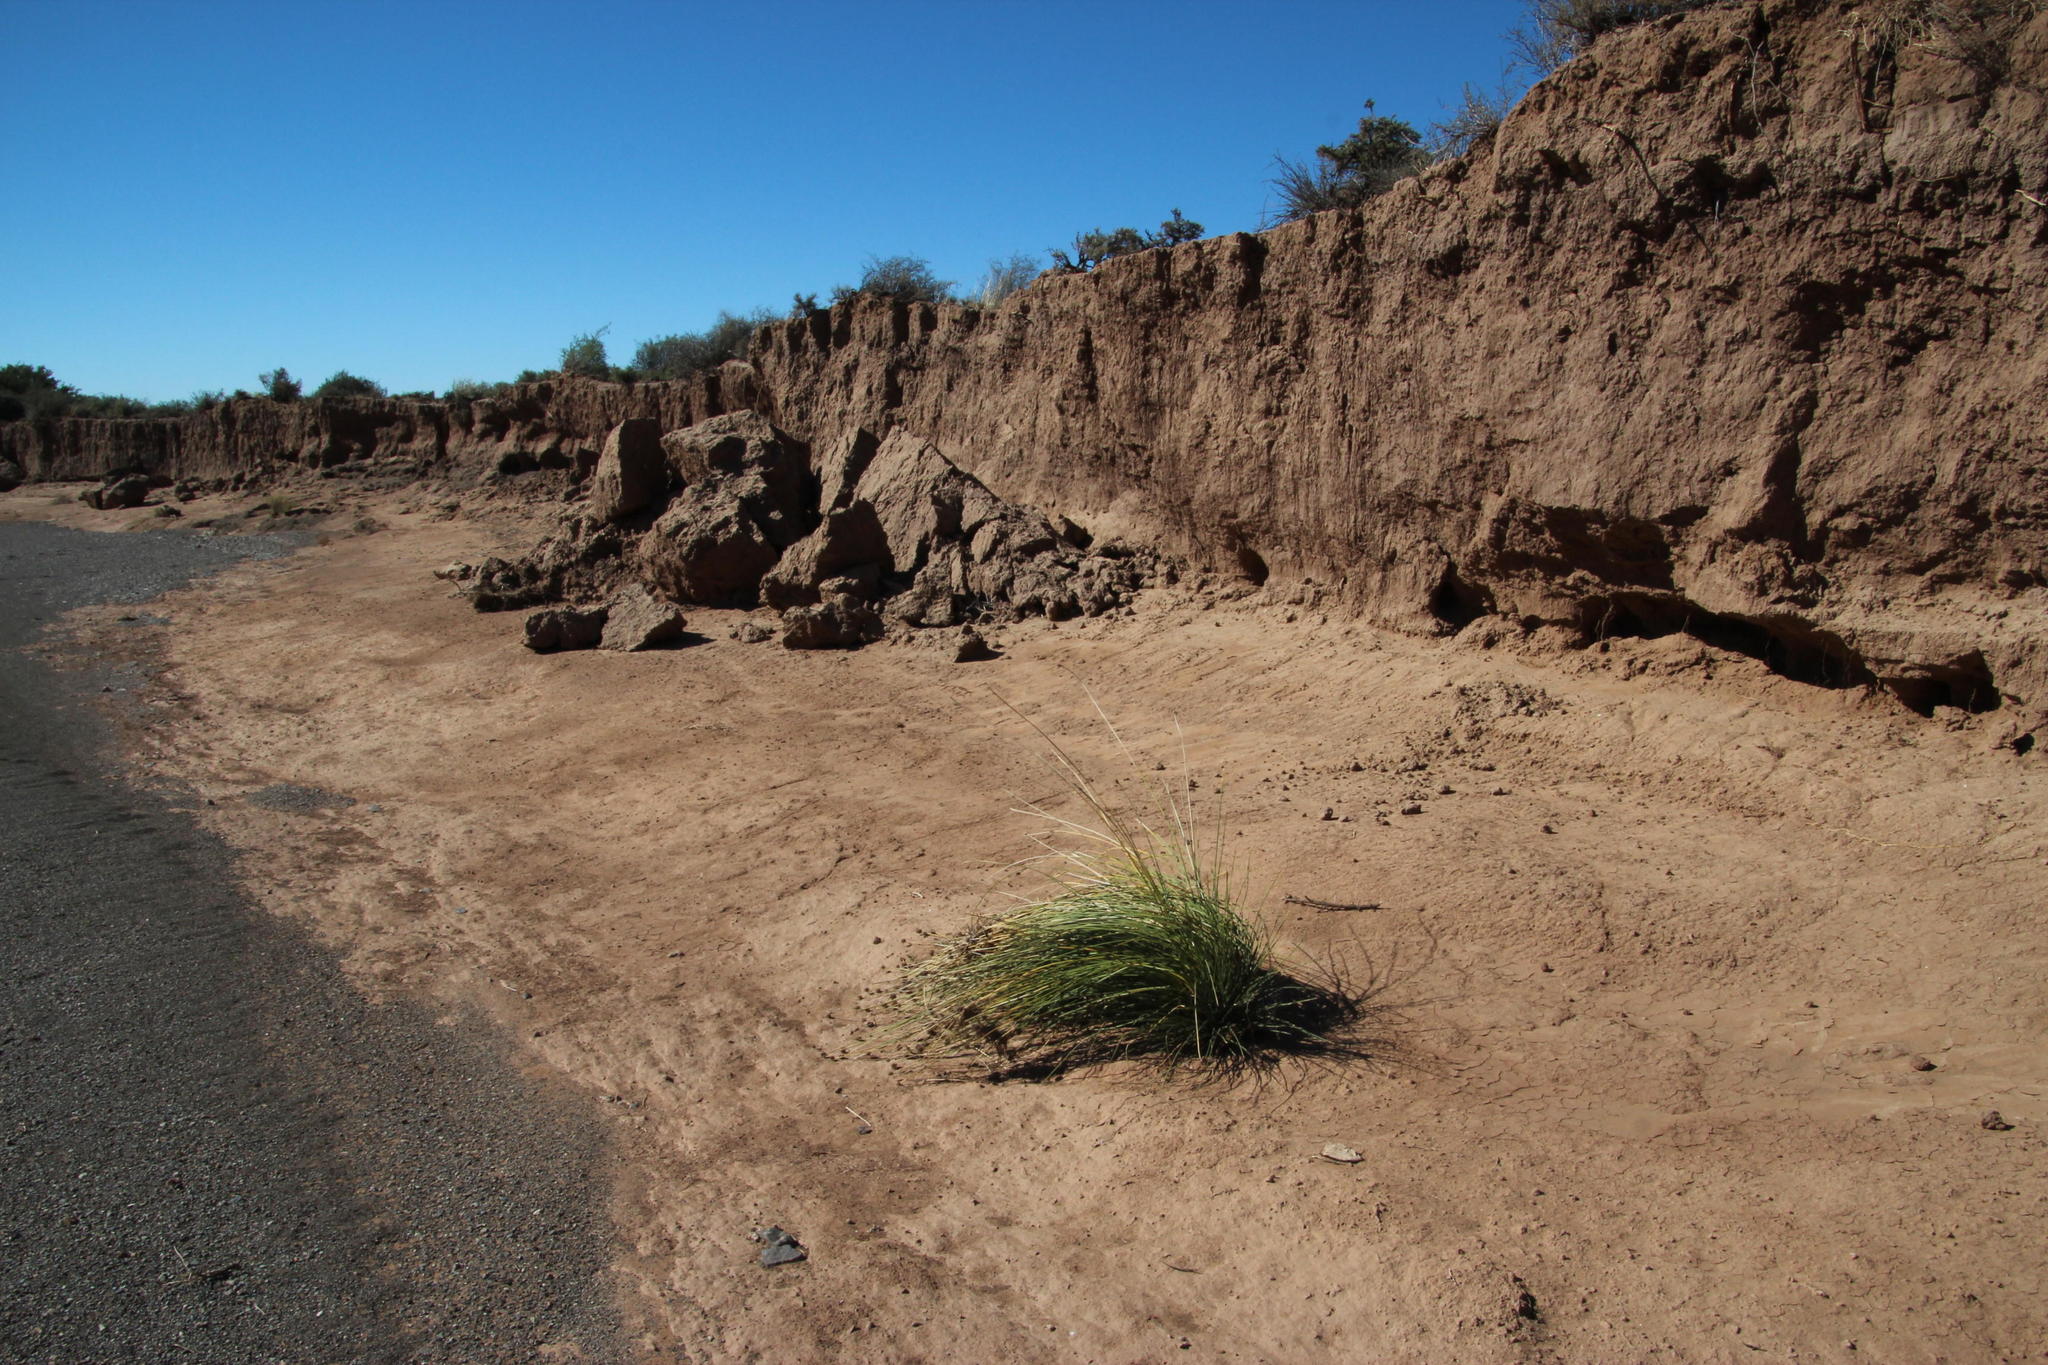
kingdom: Plantae
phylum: Tracheophyta
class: Liliopsida
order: Poales
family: Cyperaceae
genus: Afroscirpoides
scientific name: Afroscirpoides dioeca
